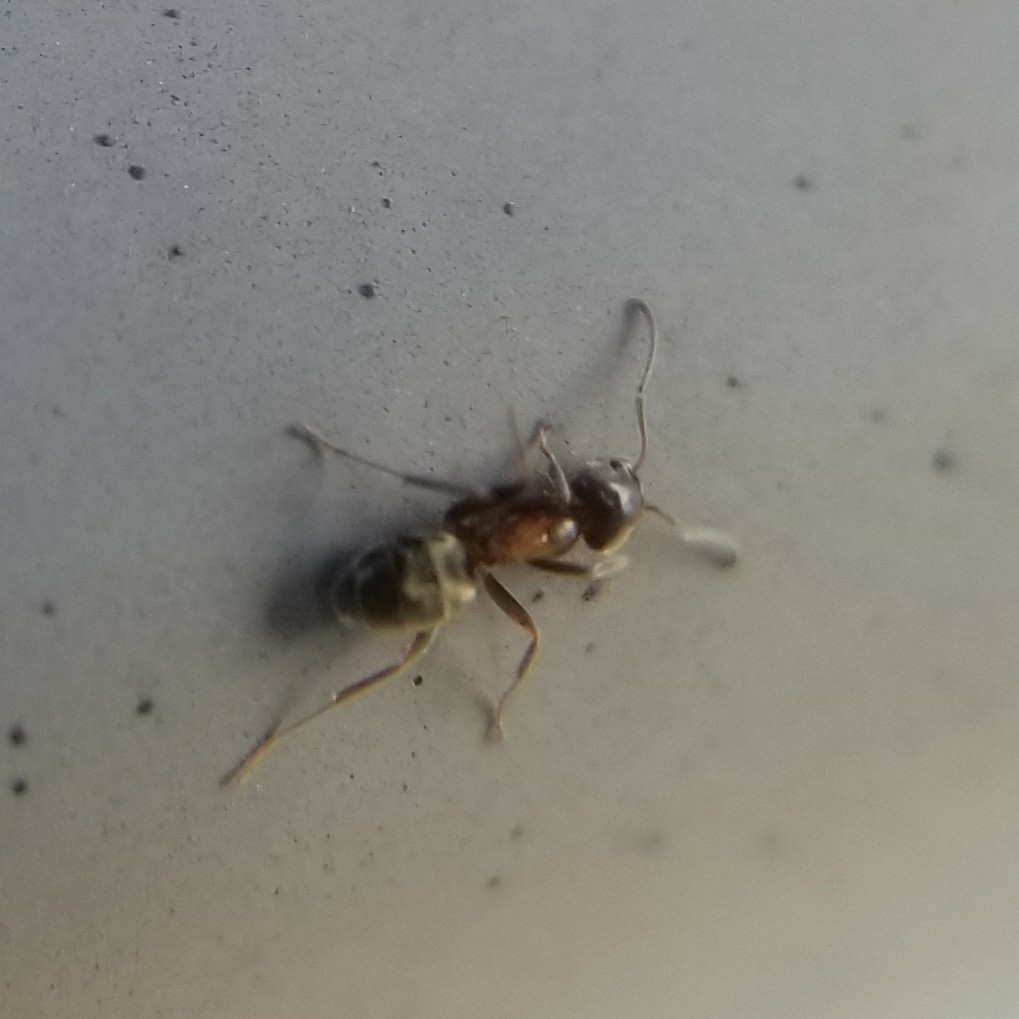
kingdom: Animalia
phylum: Arthropoda
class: Insecta
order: Hymenoptera
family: Formicidae
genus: Liometopum
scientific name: Liometopum occidentale
